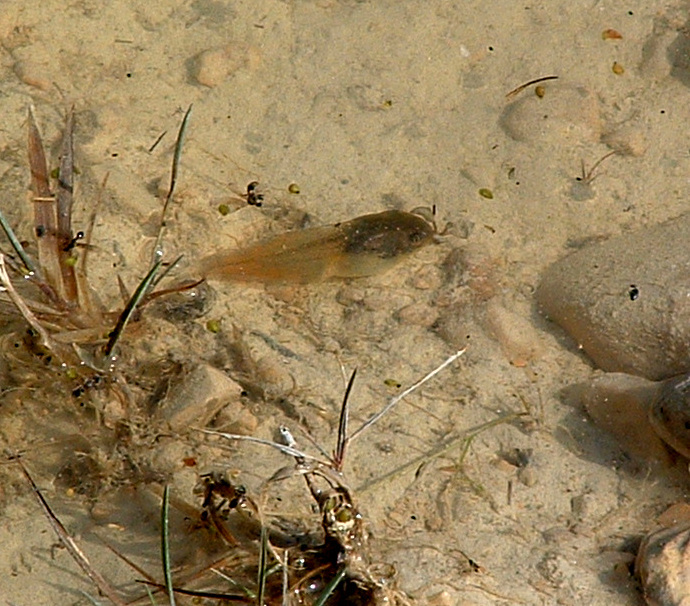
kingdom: Animalia
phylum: Chordata
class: Amphibia
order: Anura
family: Ranidae
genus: Lithobates
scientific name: Lithobates pipiens
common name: Northern leopard frog
